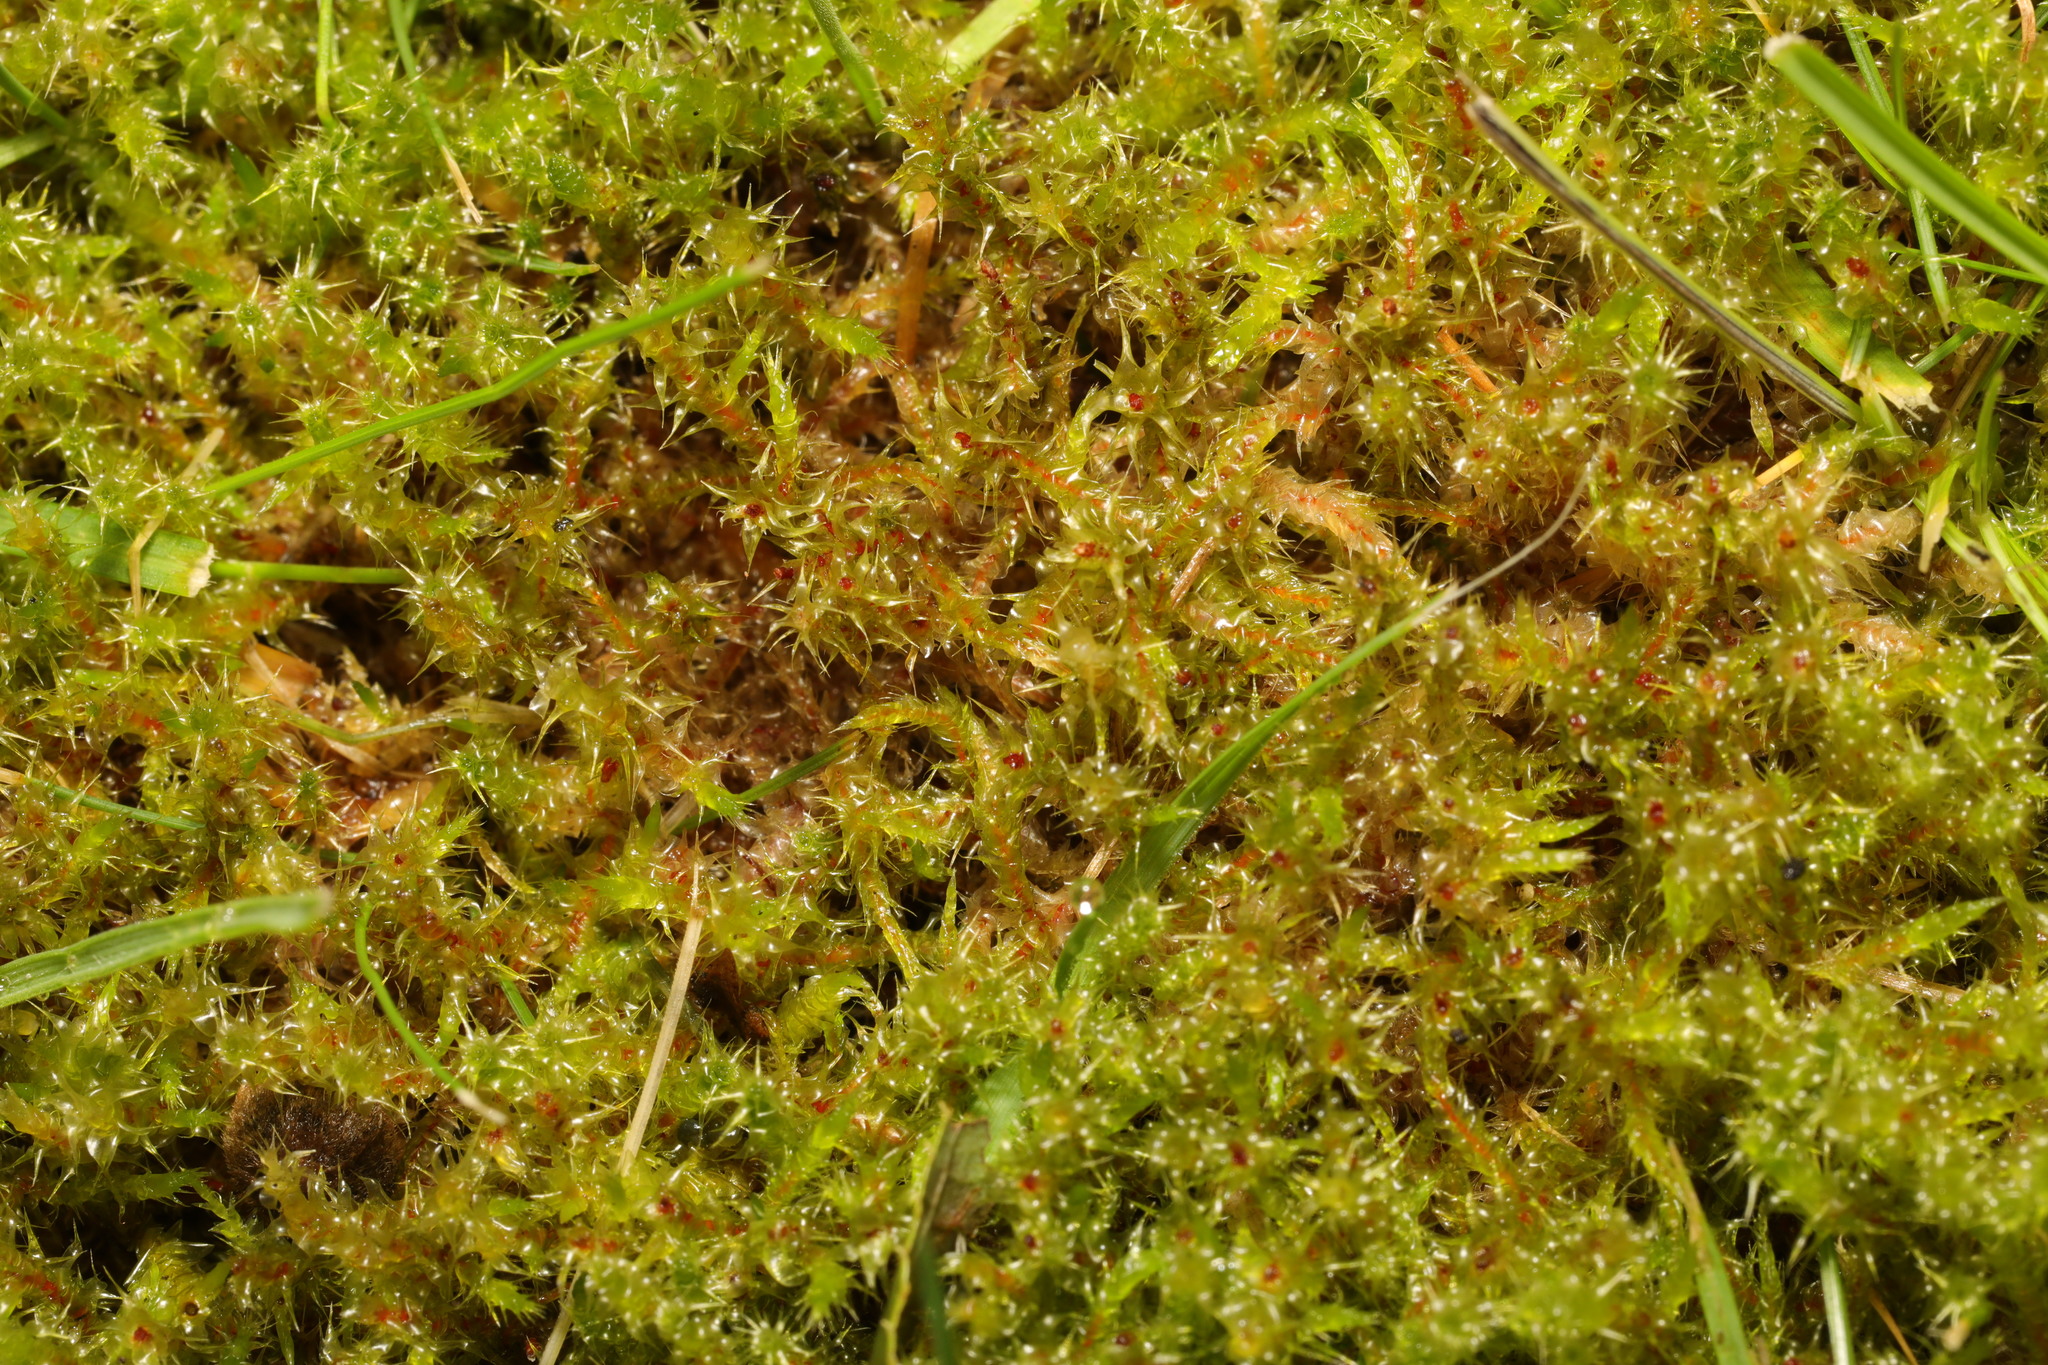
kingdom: Plantae
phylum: Bryophyta
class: Bryopsida
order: Hypnales
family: Hylocomiaceae
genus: Rhytidiadelphus
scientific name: Rhytidiadelphus squarrosus
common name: Springy turf-moss
